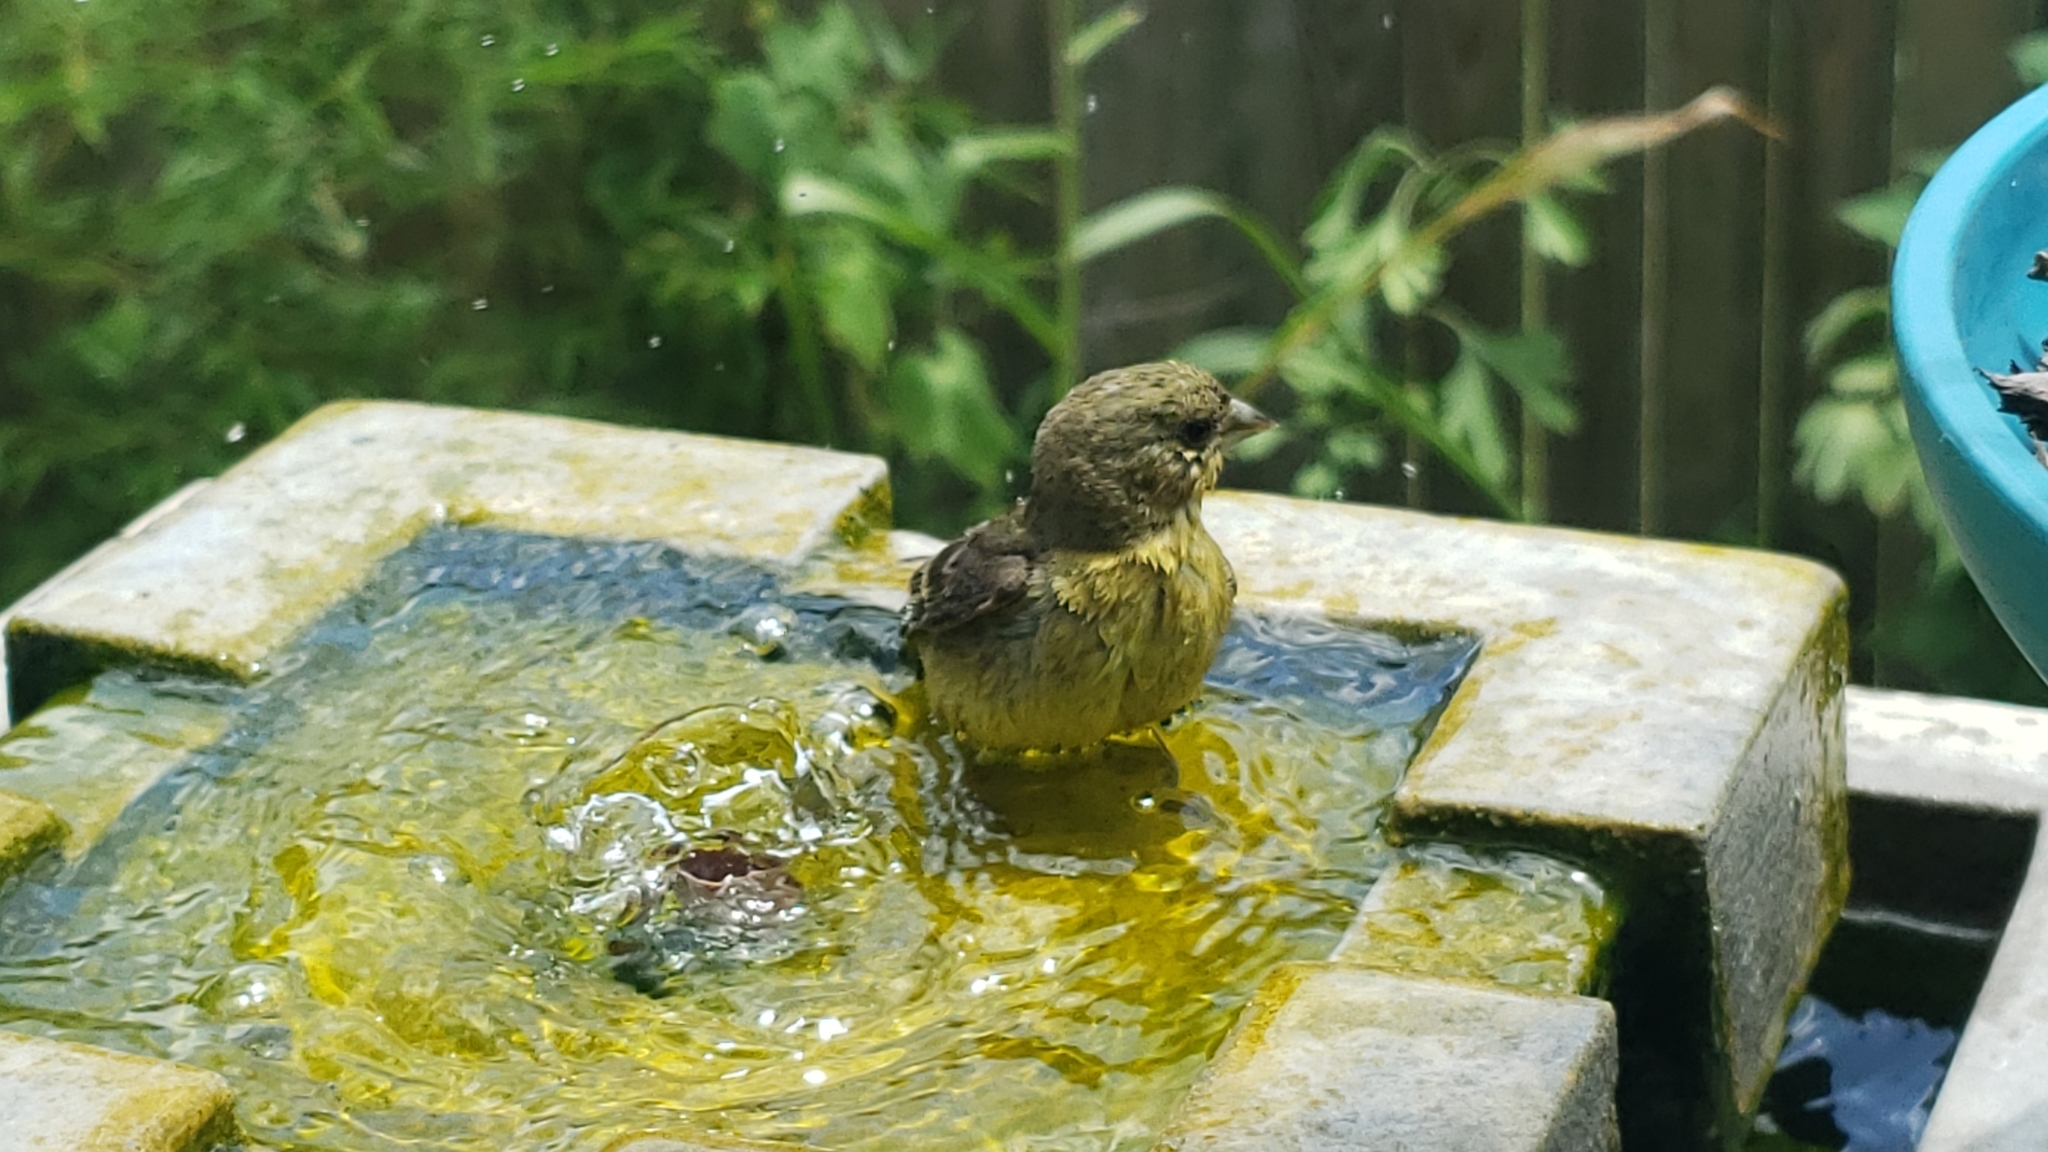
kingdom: Animalia
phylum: Chordata
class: Aves
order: Passeriformes
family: Fringillidae
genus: Spinus
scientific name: Spinus psaltria
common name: Lesser goldfinch
